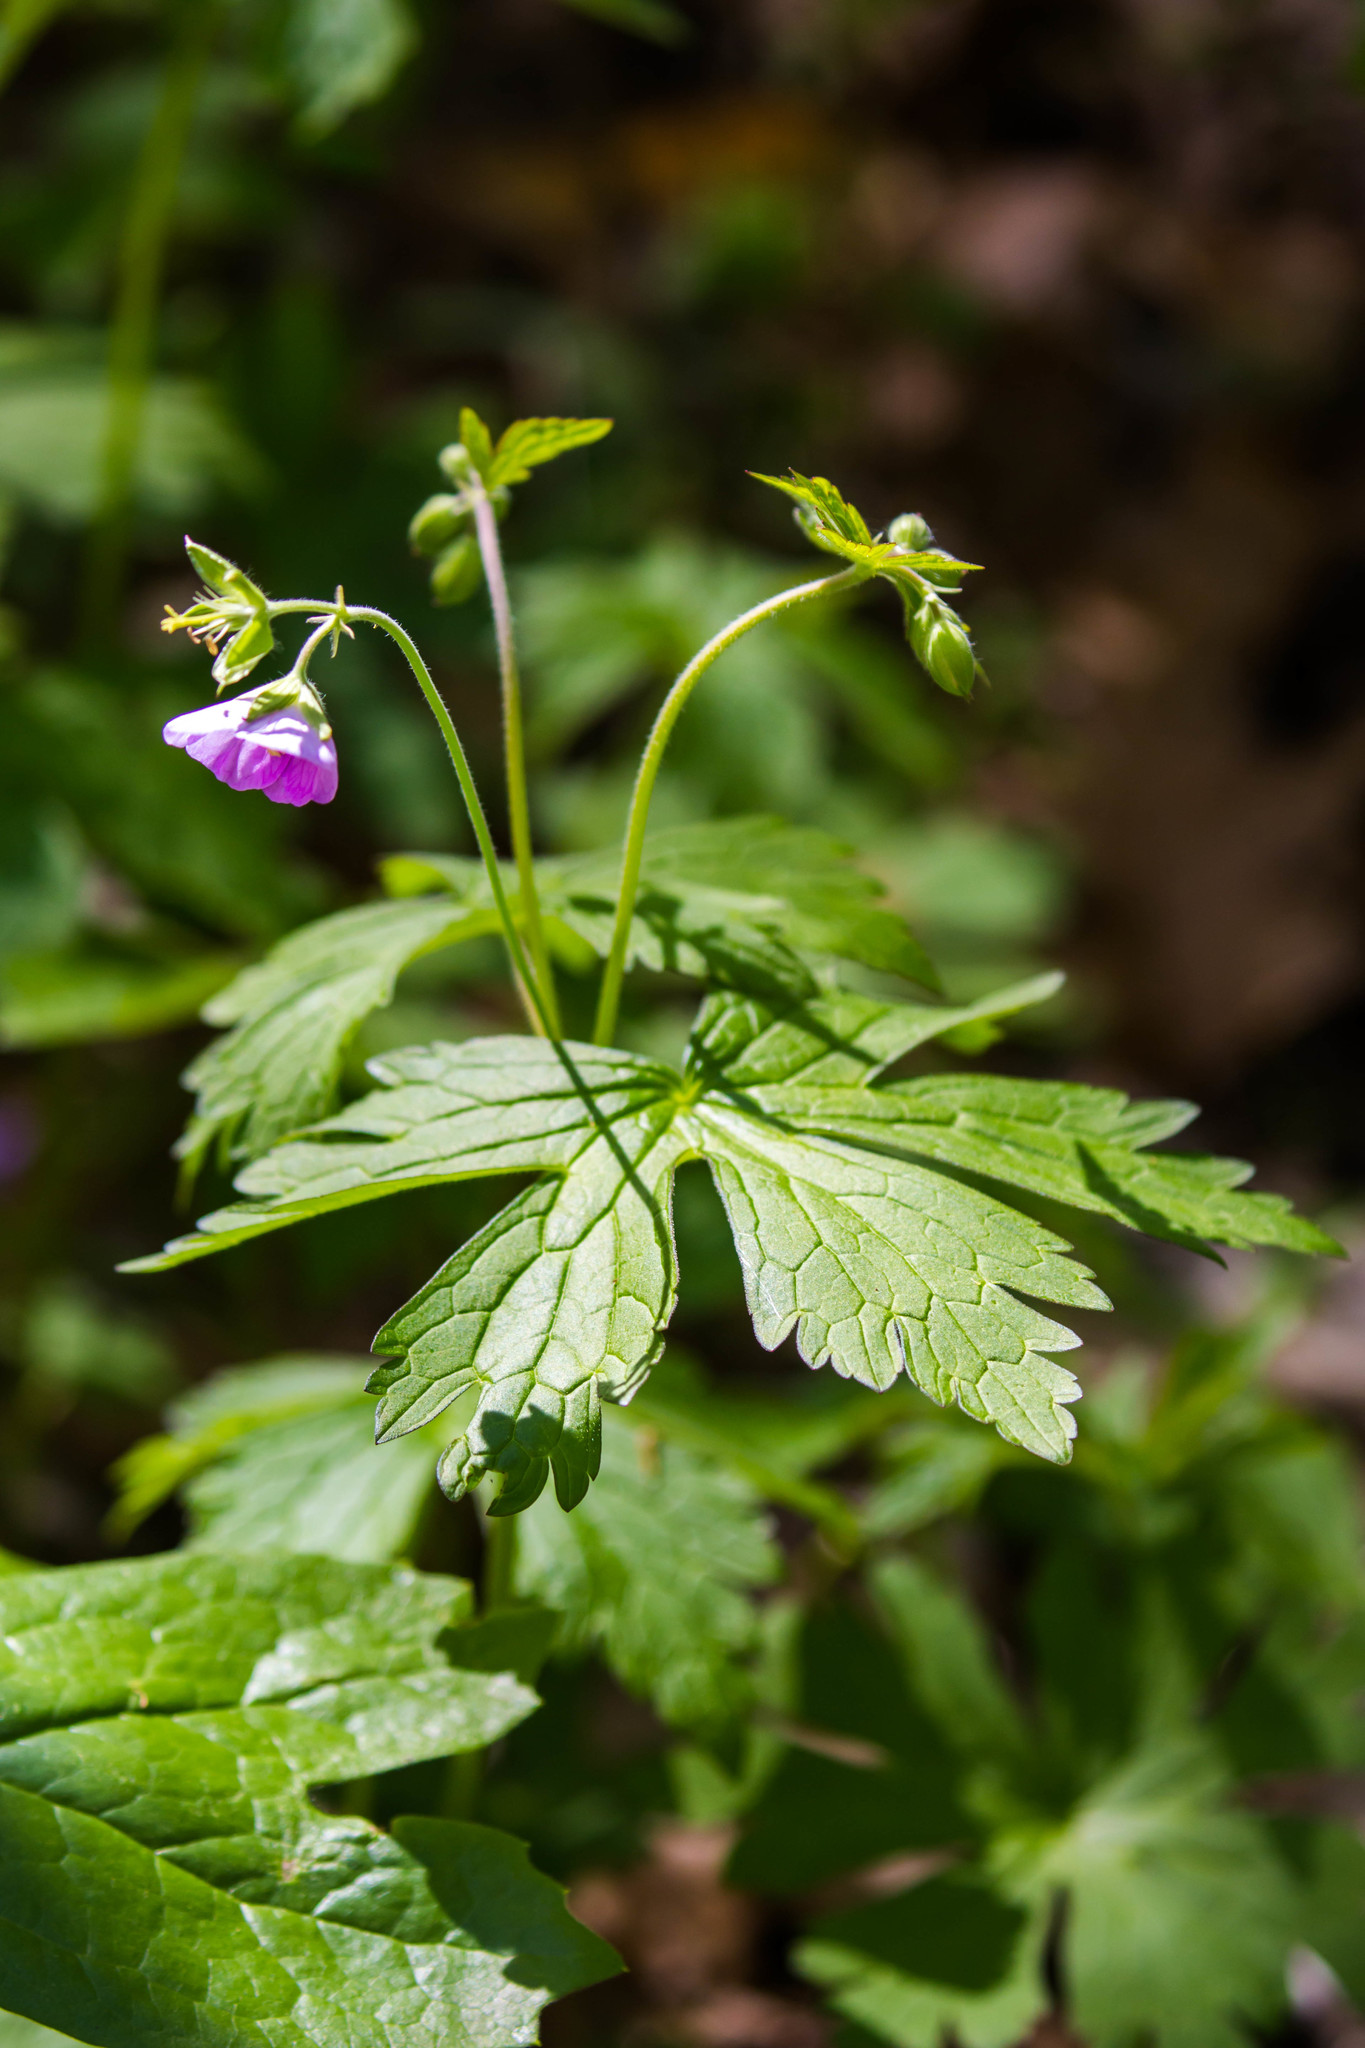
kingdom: Plantae
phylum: Tracheophyta
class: Magnoliopsida
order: Geraniales
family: Geraniaceae
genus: Geranium
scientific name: Geranium maculatum
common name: Spotted geranium
